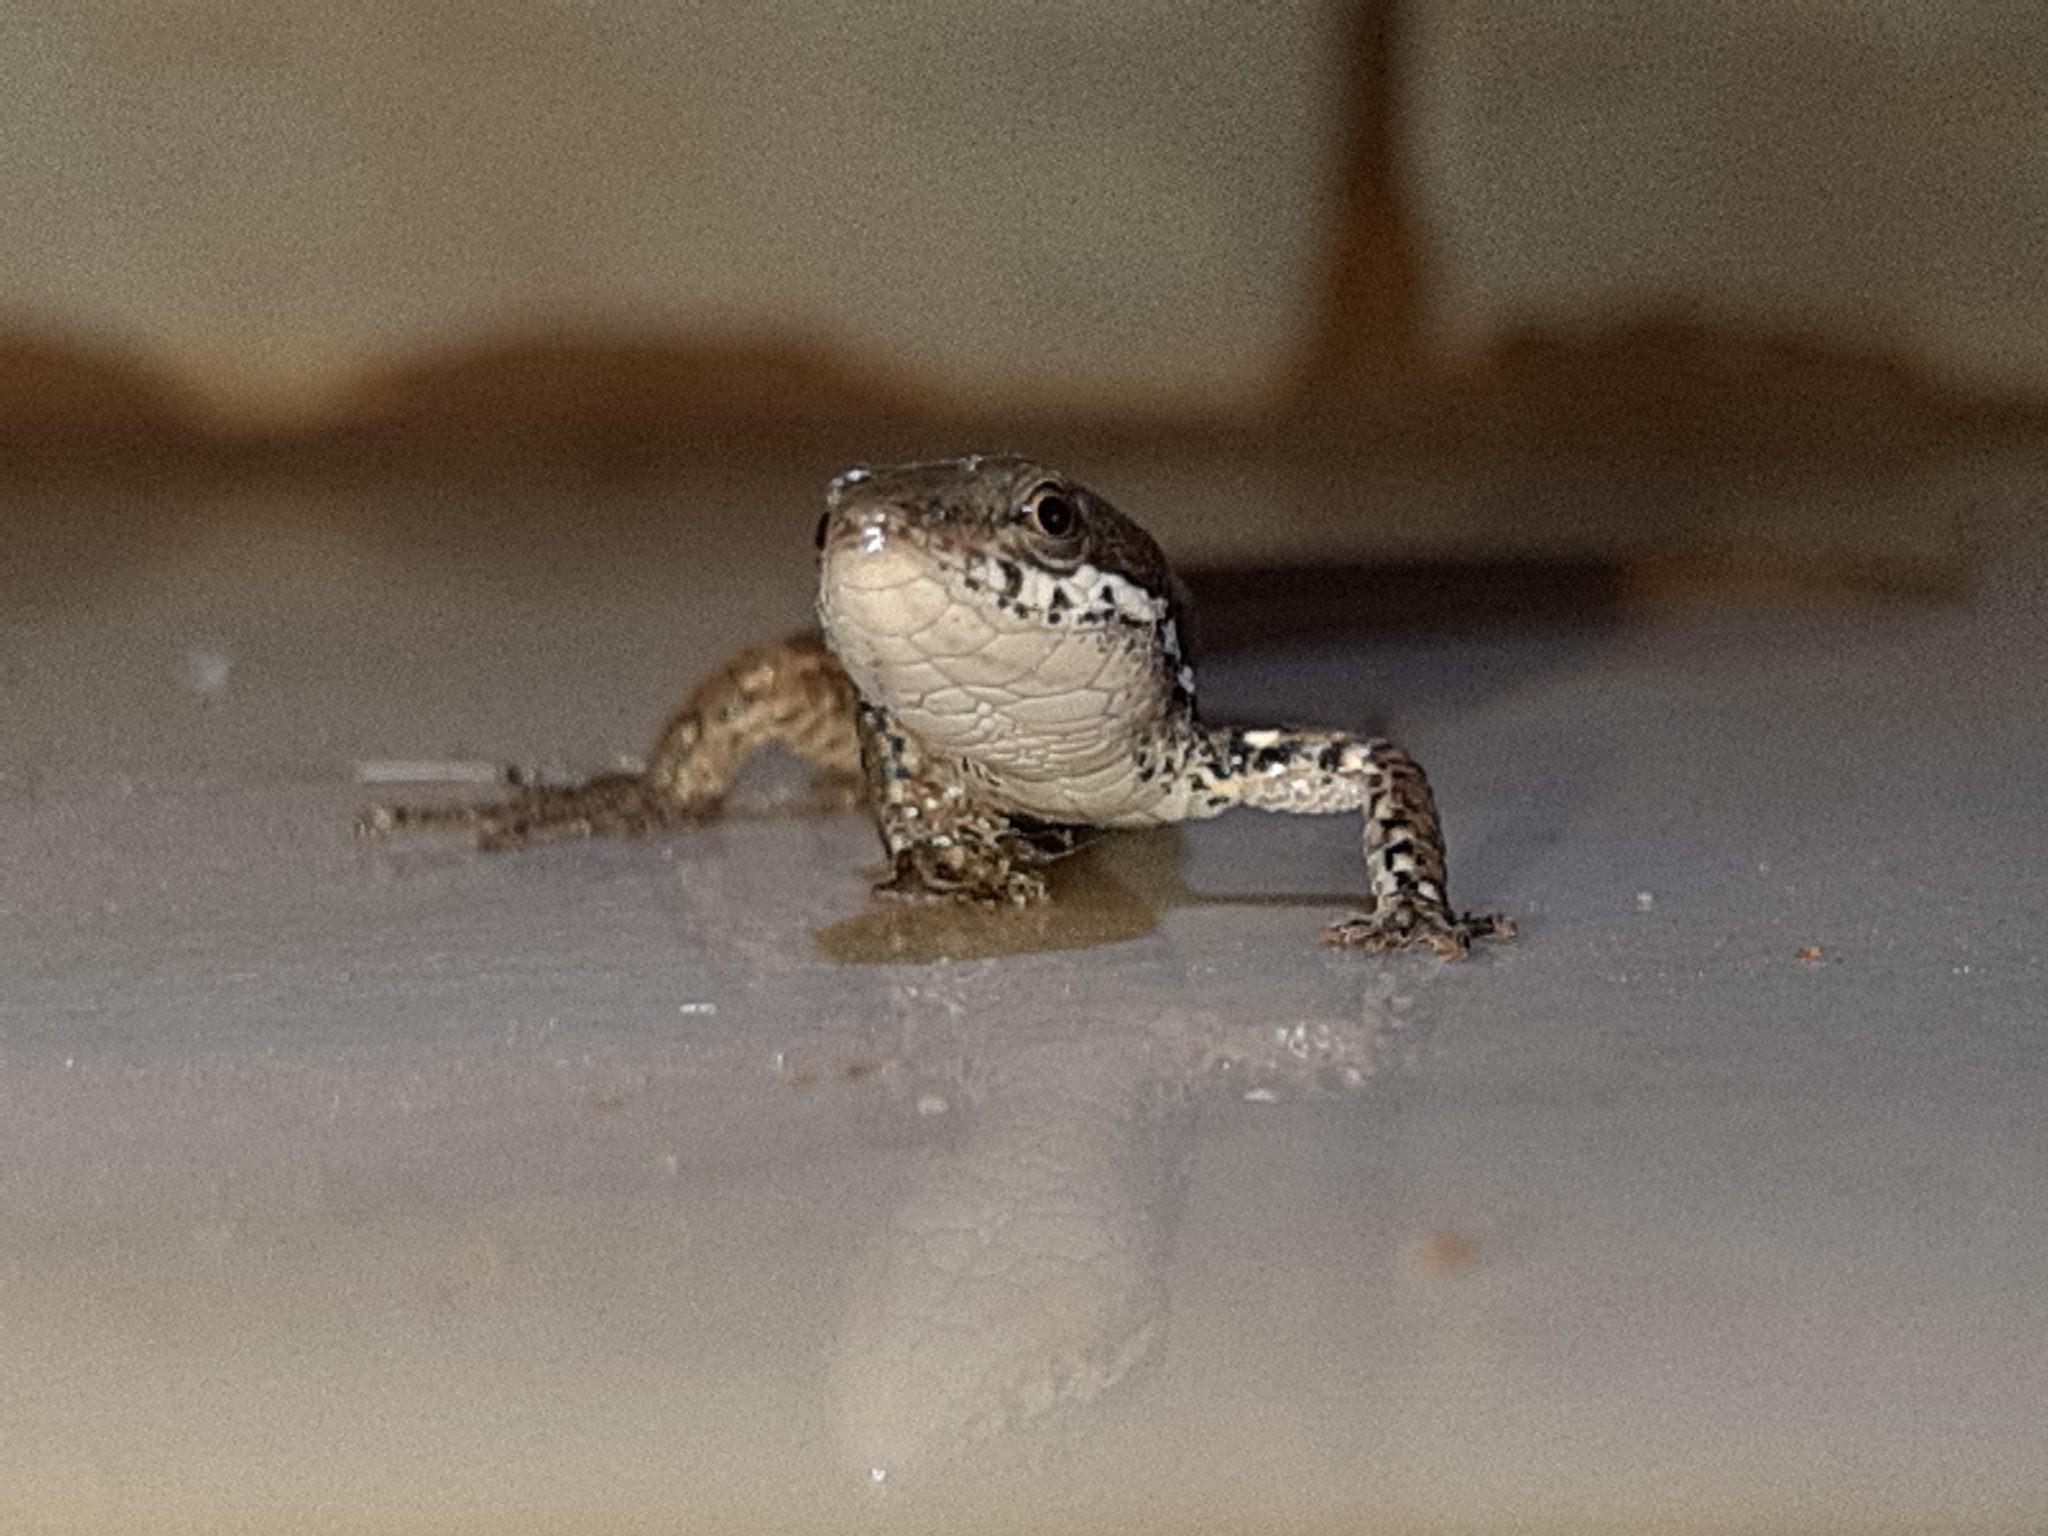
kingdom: Animalia
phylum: Chordata
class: Squamata
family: Gymnophthalmidae
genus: Cercosaura
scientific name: Cercosaura eigenmanni
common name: Eigenmann's cercosaura
